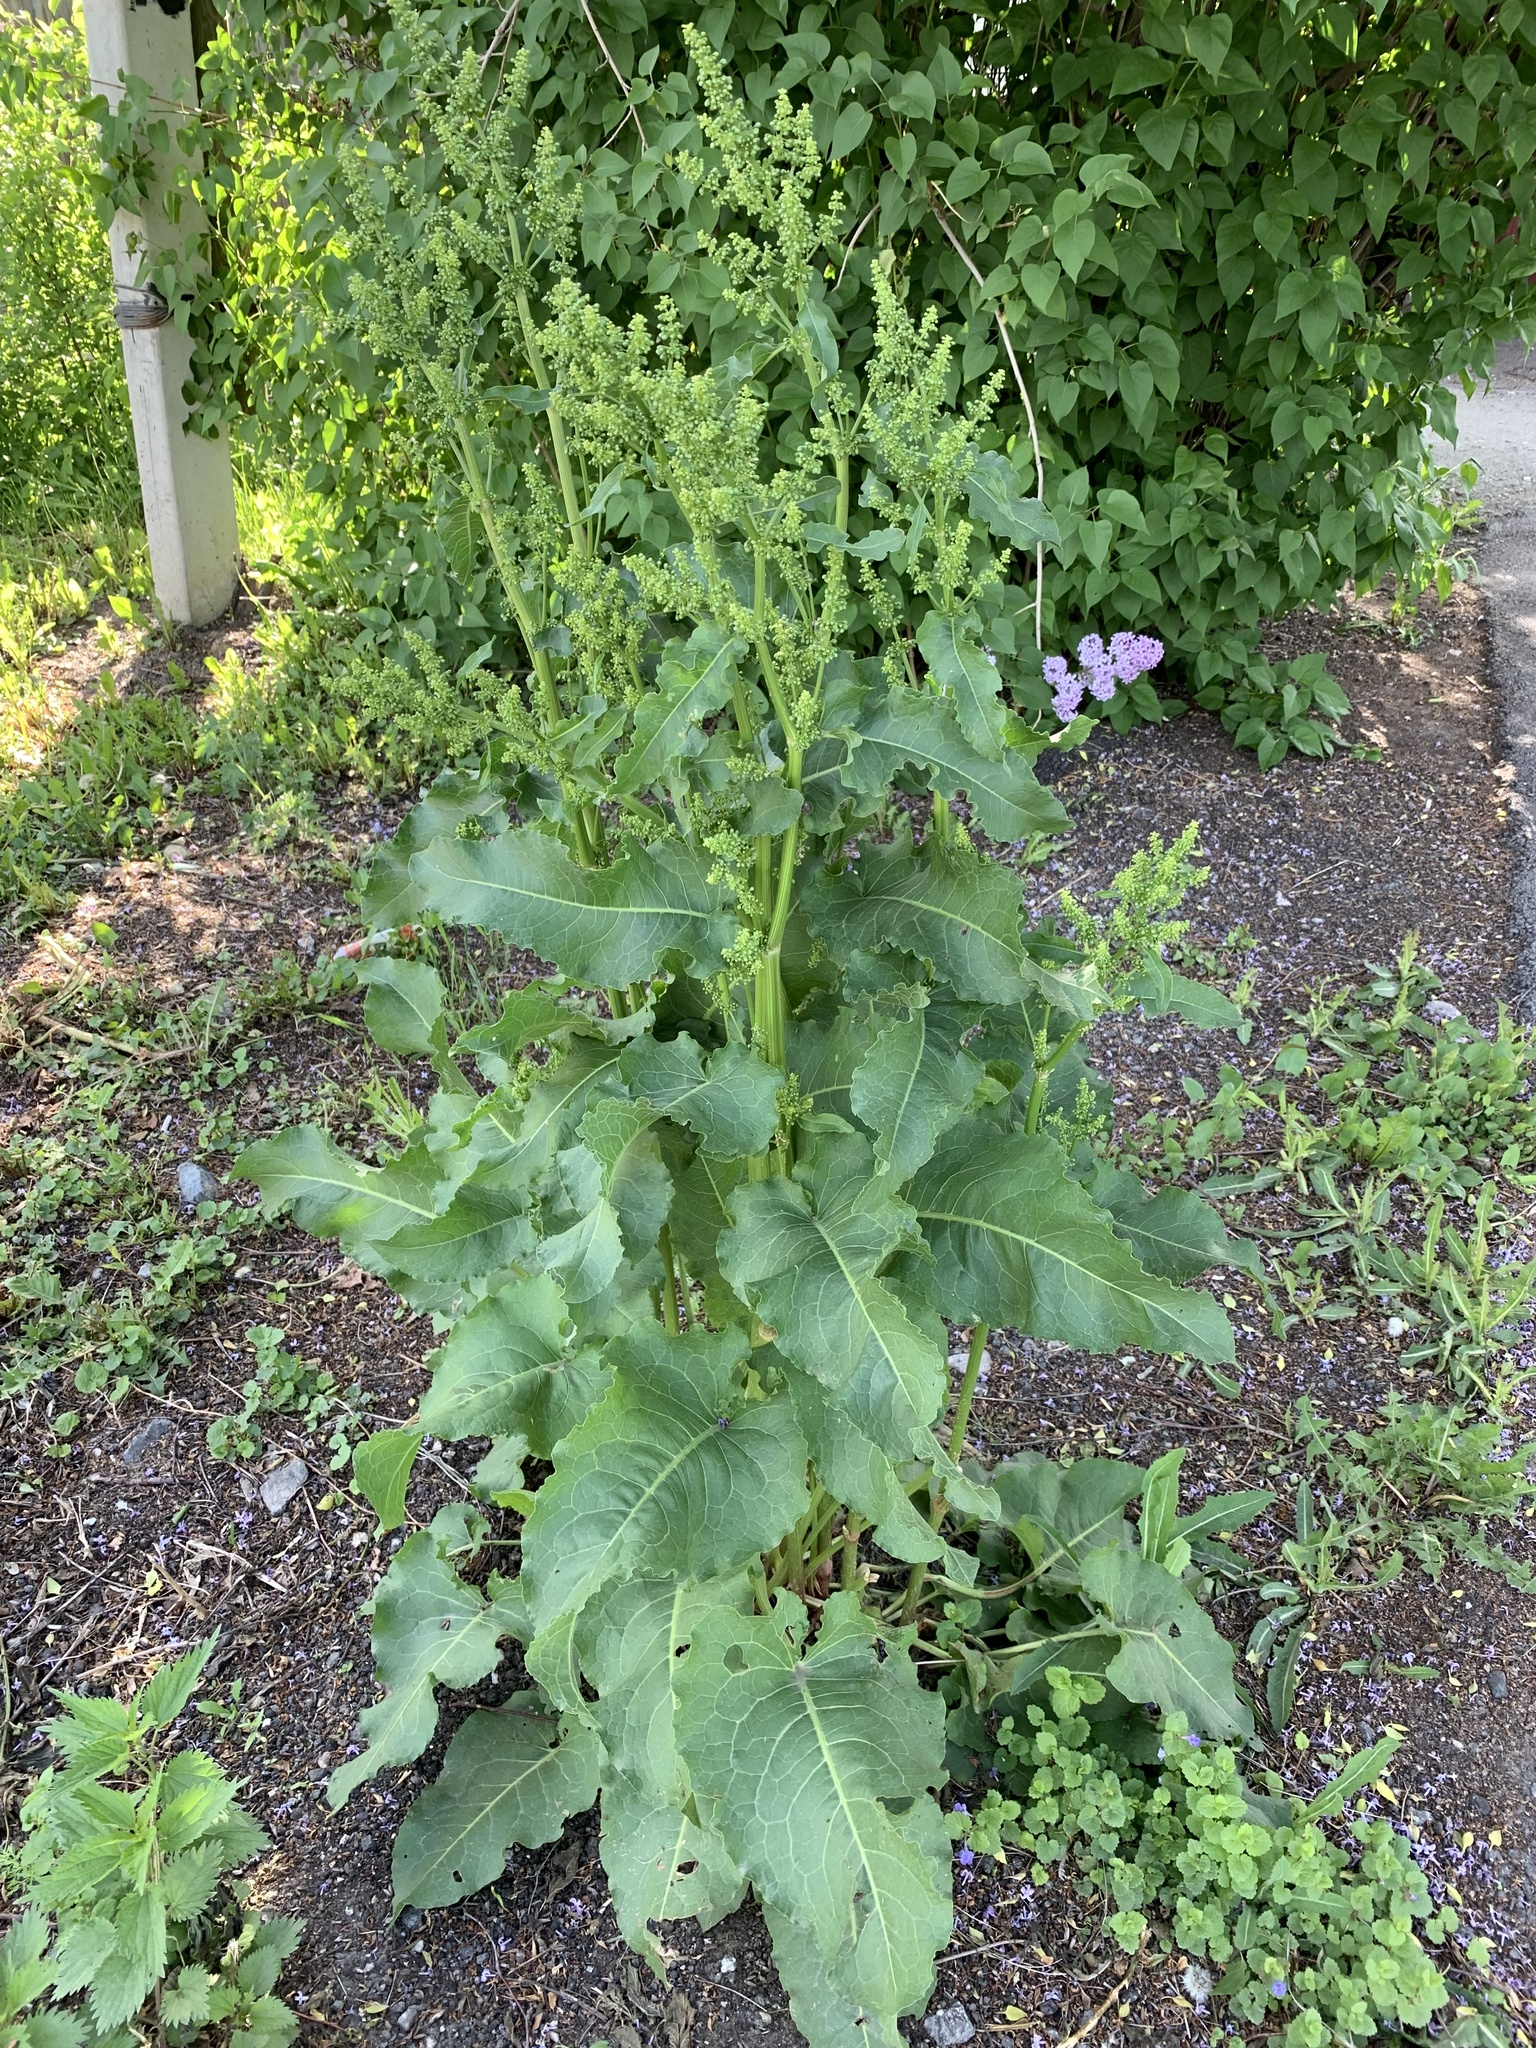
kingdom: Plantae
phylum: Tracheophyta
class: Magnoliopsida
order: Caryophyllales
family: Polygonaceae
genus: Rumex
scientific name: Rumex confertus
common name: Russian dock
